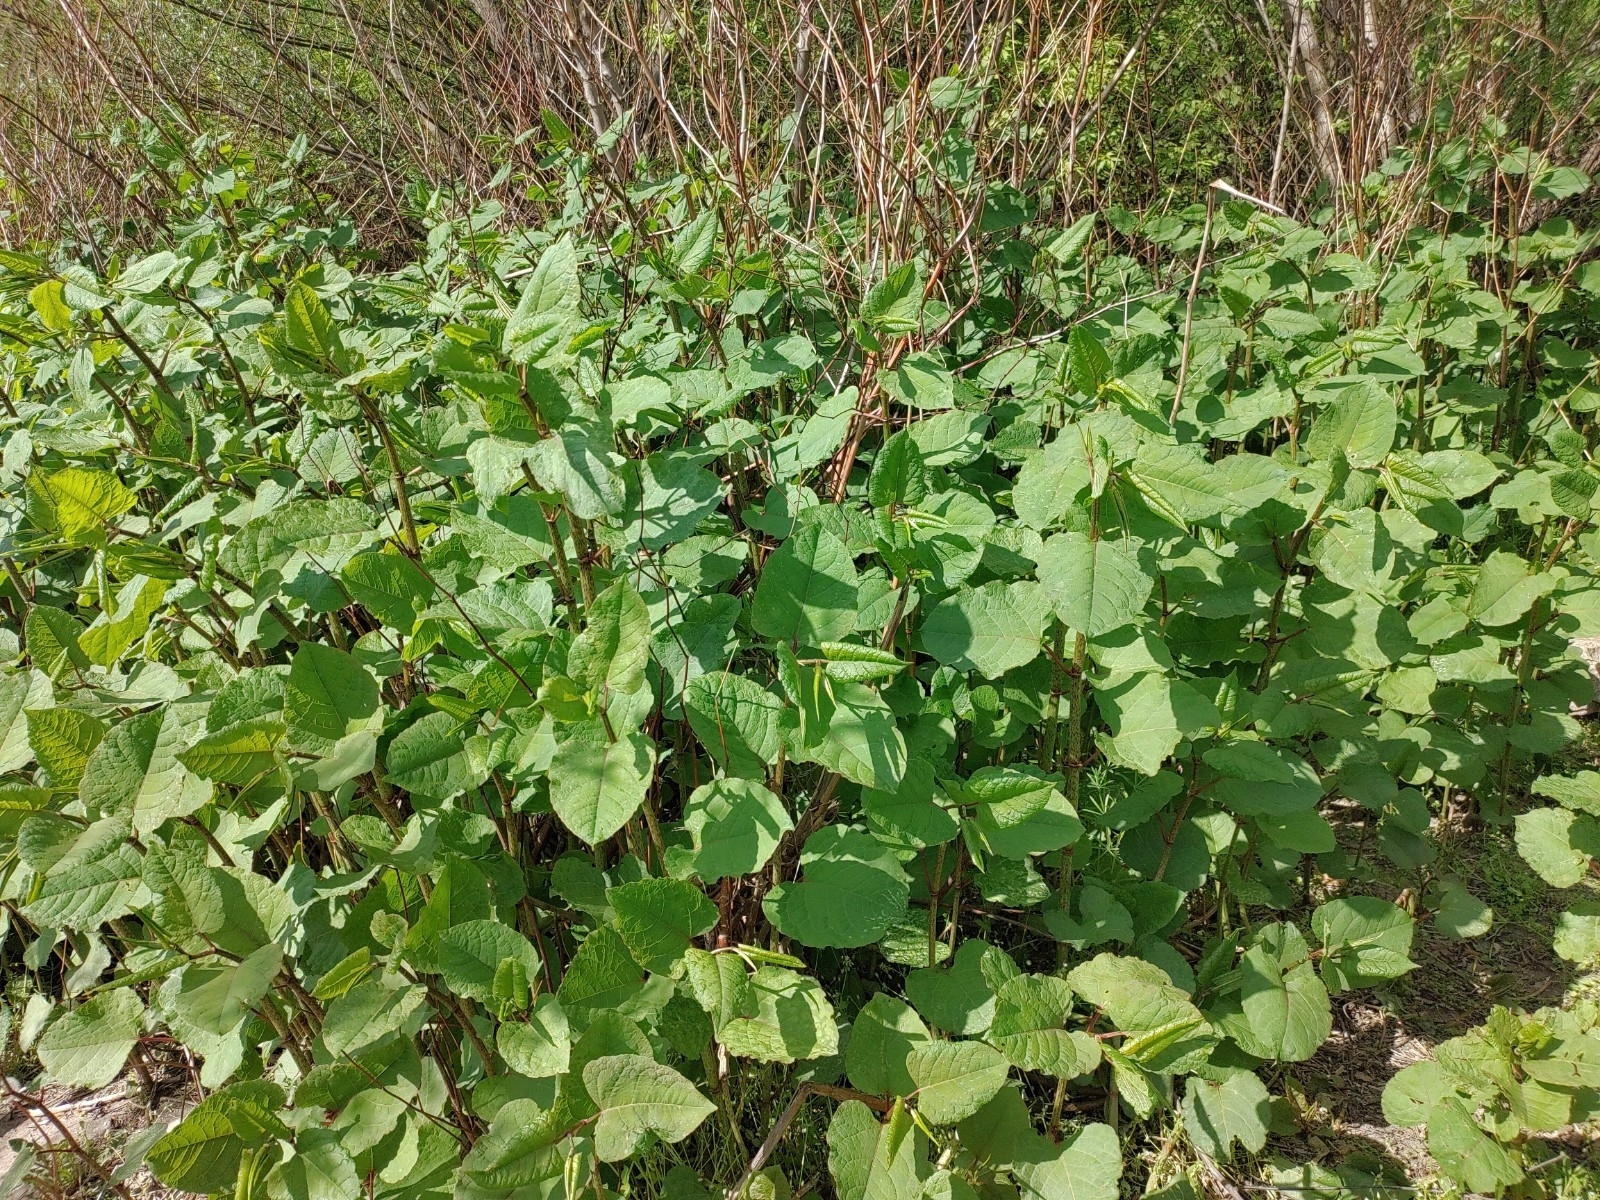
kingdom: Plantae
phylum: Tracheophyta
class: Magnoliopsida
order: Caryophyllales
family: Polygonaceae
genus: Reynoutria
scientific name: Reynoutria bohemica
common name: Bohemian knotweed
